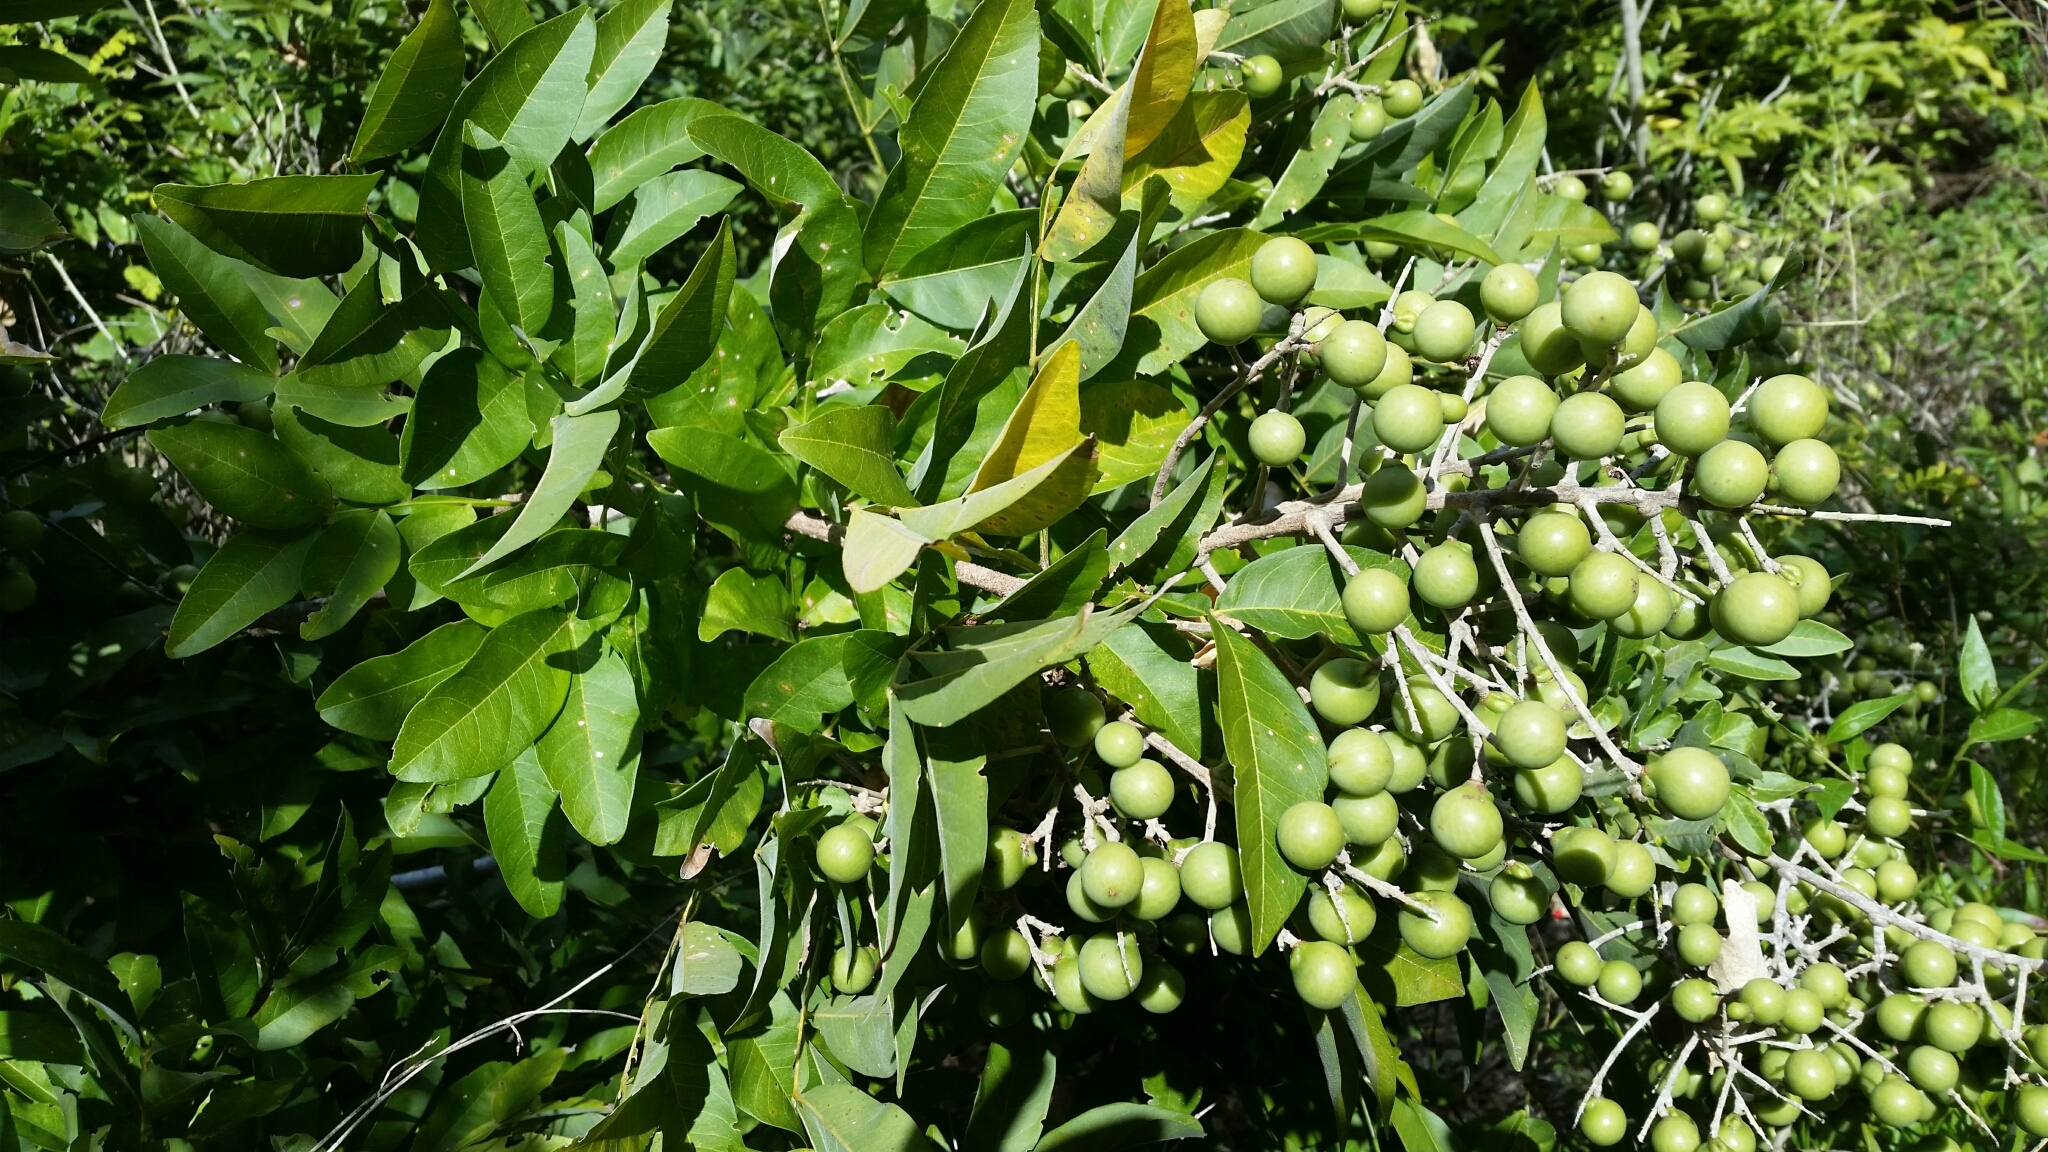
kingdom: Plantae
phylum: Tracheophyta
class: Magnoliopsida
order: Sapindales
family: Sapindaceae
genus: Sapindus
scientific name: Sapindus saponaria
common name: Wingleaf soapberry
